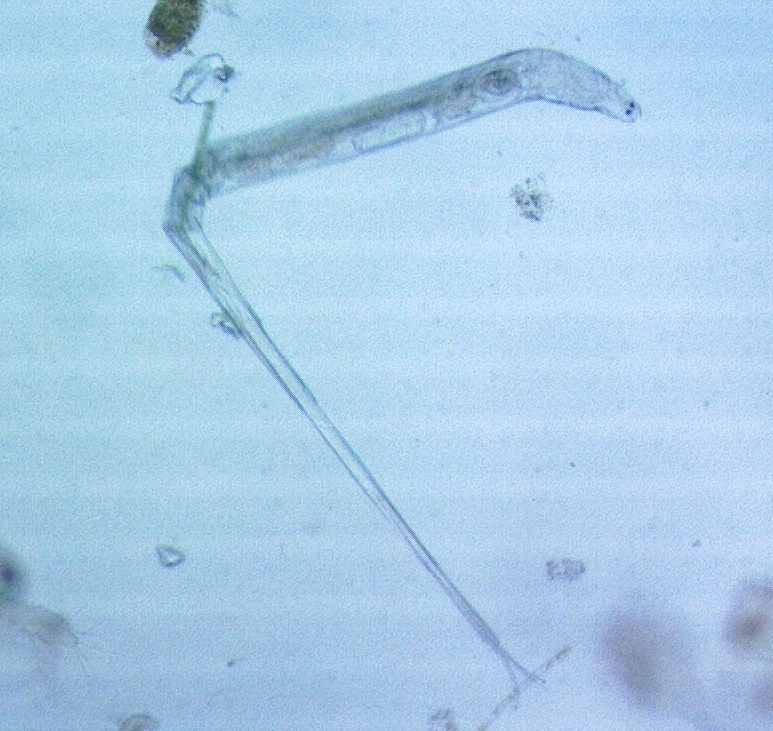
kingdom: Animalia
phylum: Rotifera
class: Eurotatoria
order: Bdelloidea
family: Philodinidae
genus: Rotaria
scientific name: Rotaria neptunia
